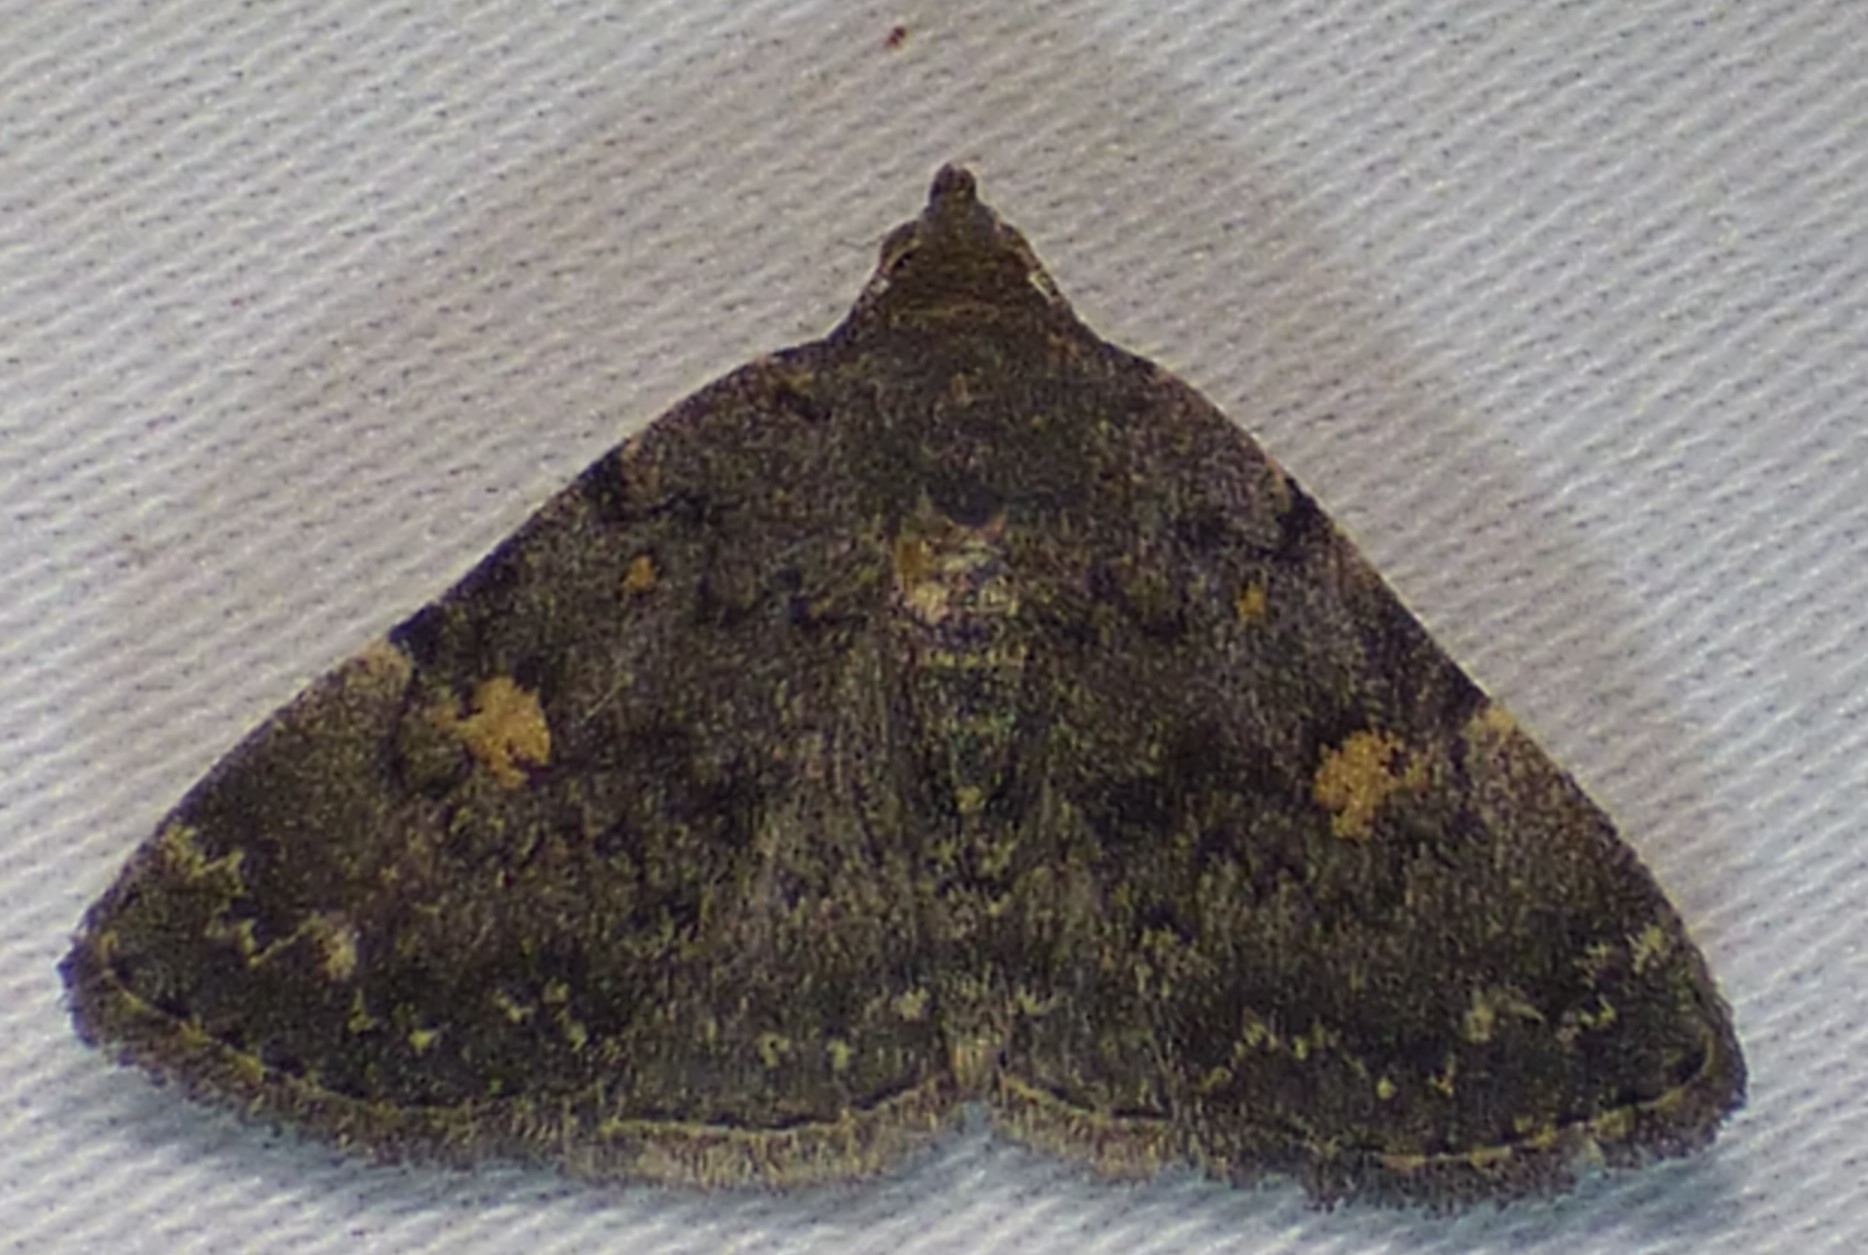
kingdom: Animalia
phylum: Arthropoda
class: Insecta
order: Lepidoptera
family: Erebidae
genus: Idia
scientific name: Idia aemula
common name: Common idia moth
